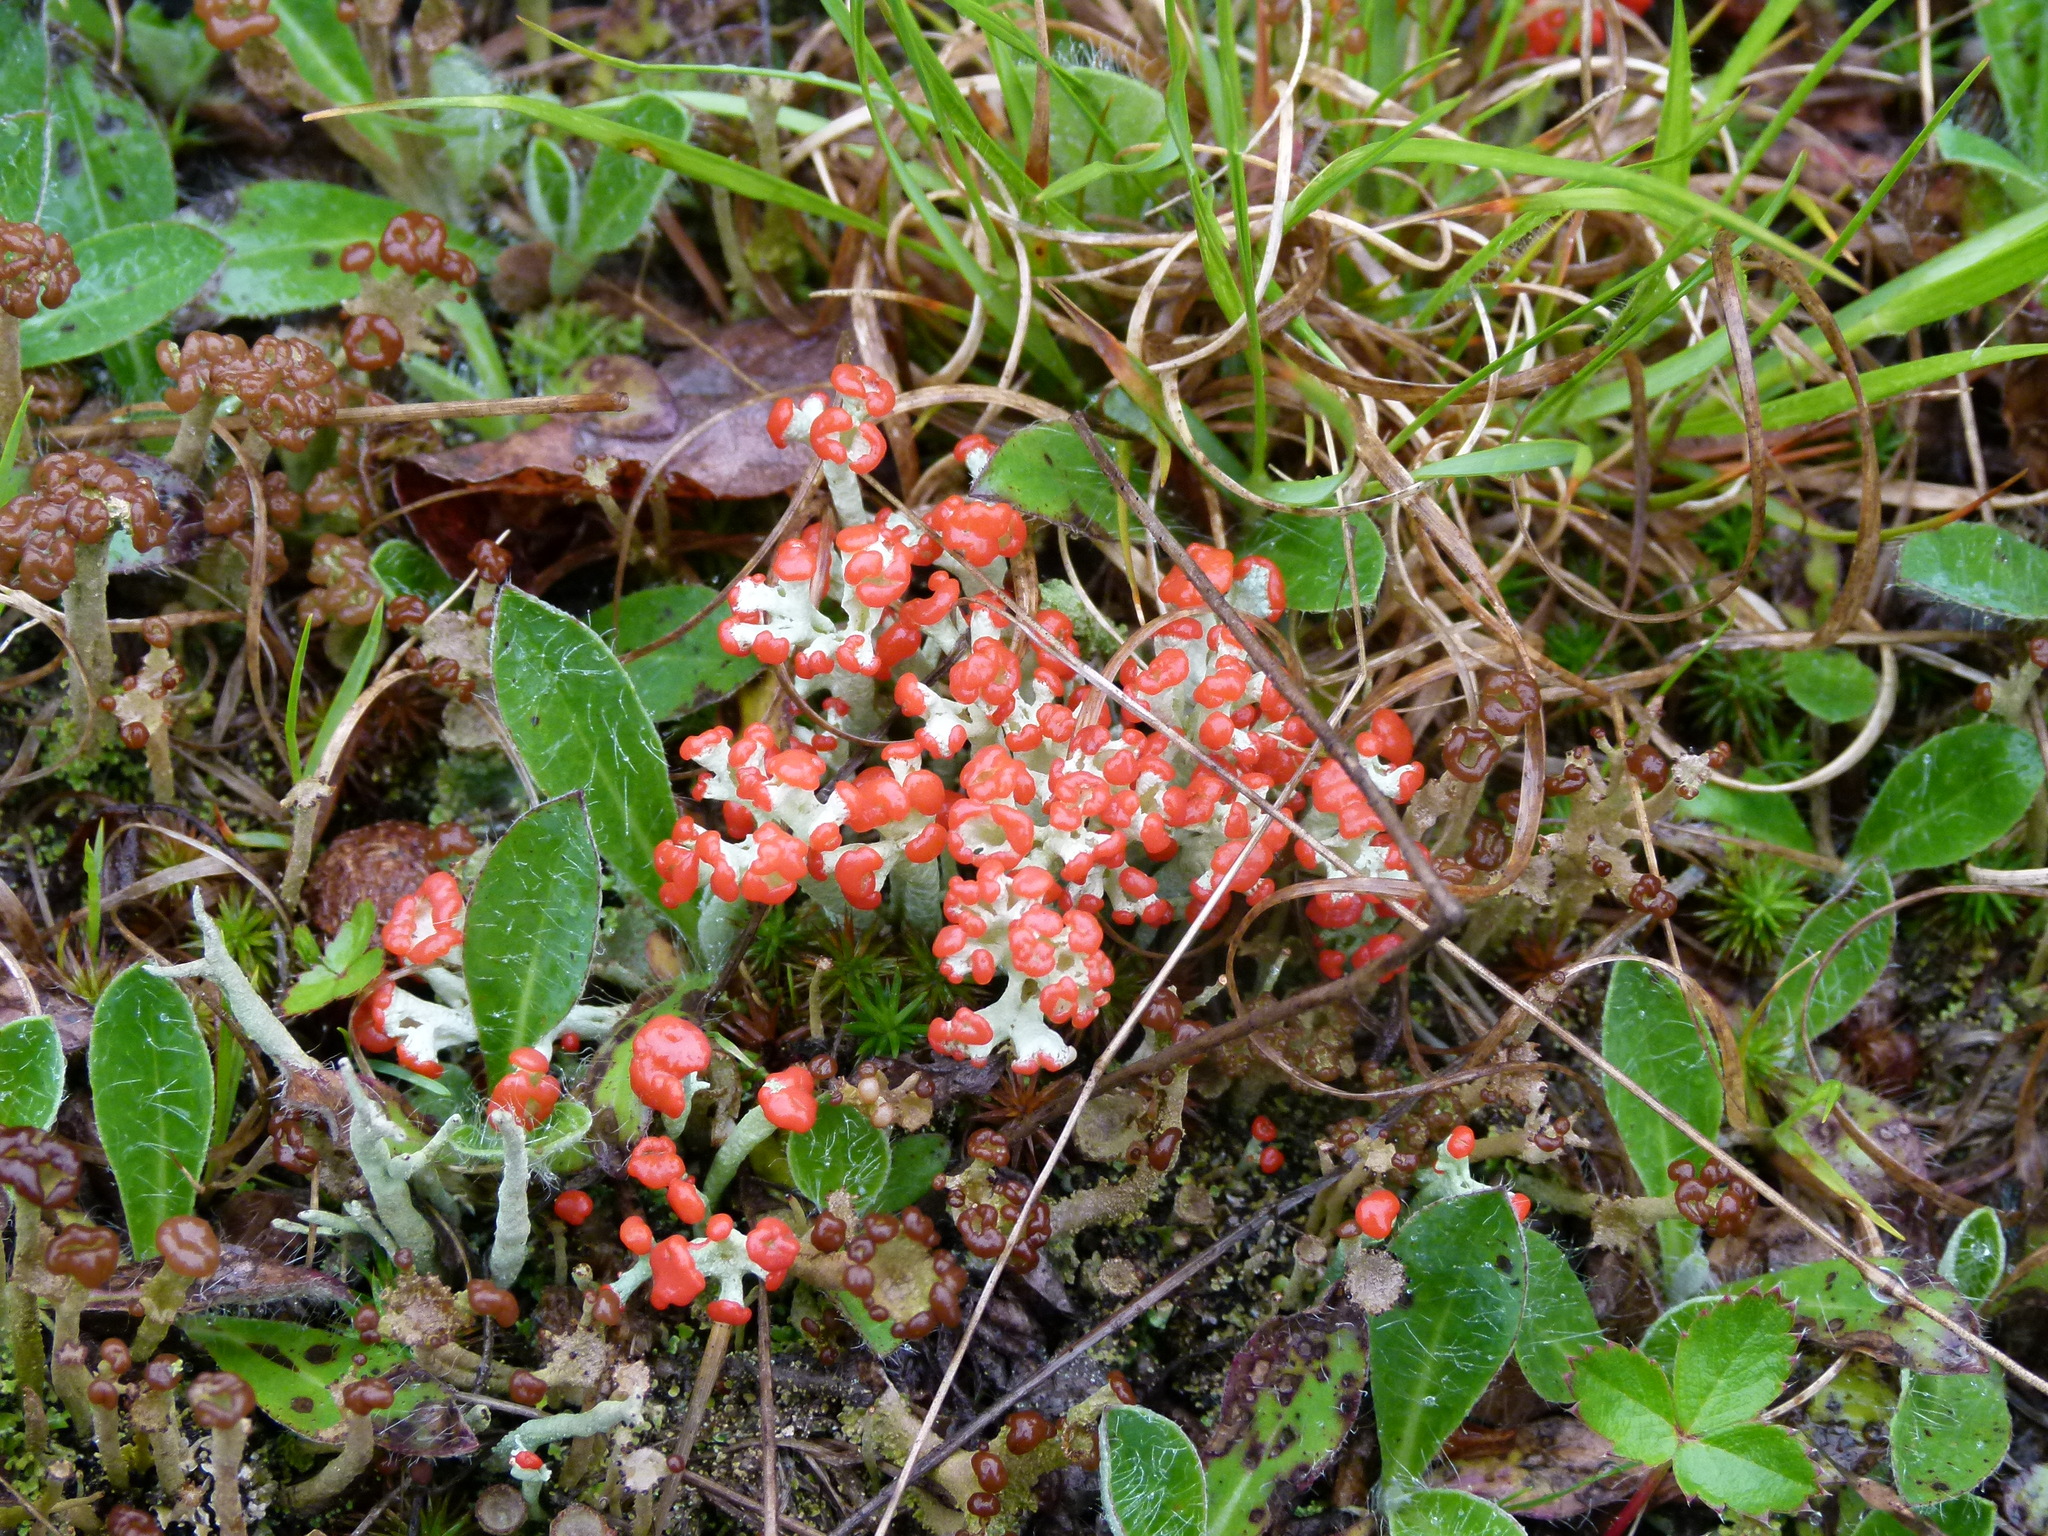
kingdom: Fungi
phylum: Ascomycota
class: Lecanoromycetes
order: Lecanorales
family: Cladoniaceae
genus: Cladonia
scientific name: Cladonia cristatella
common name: British soldier lichen
